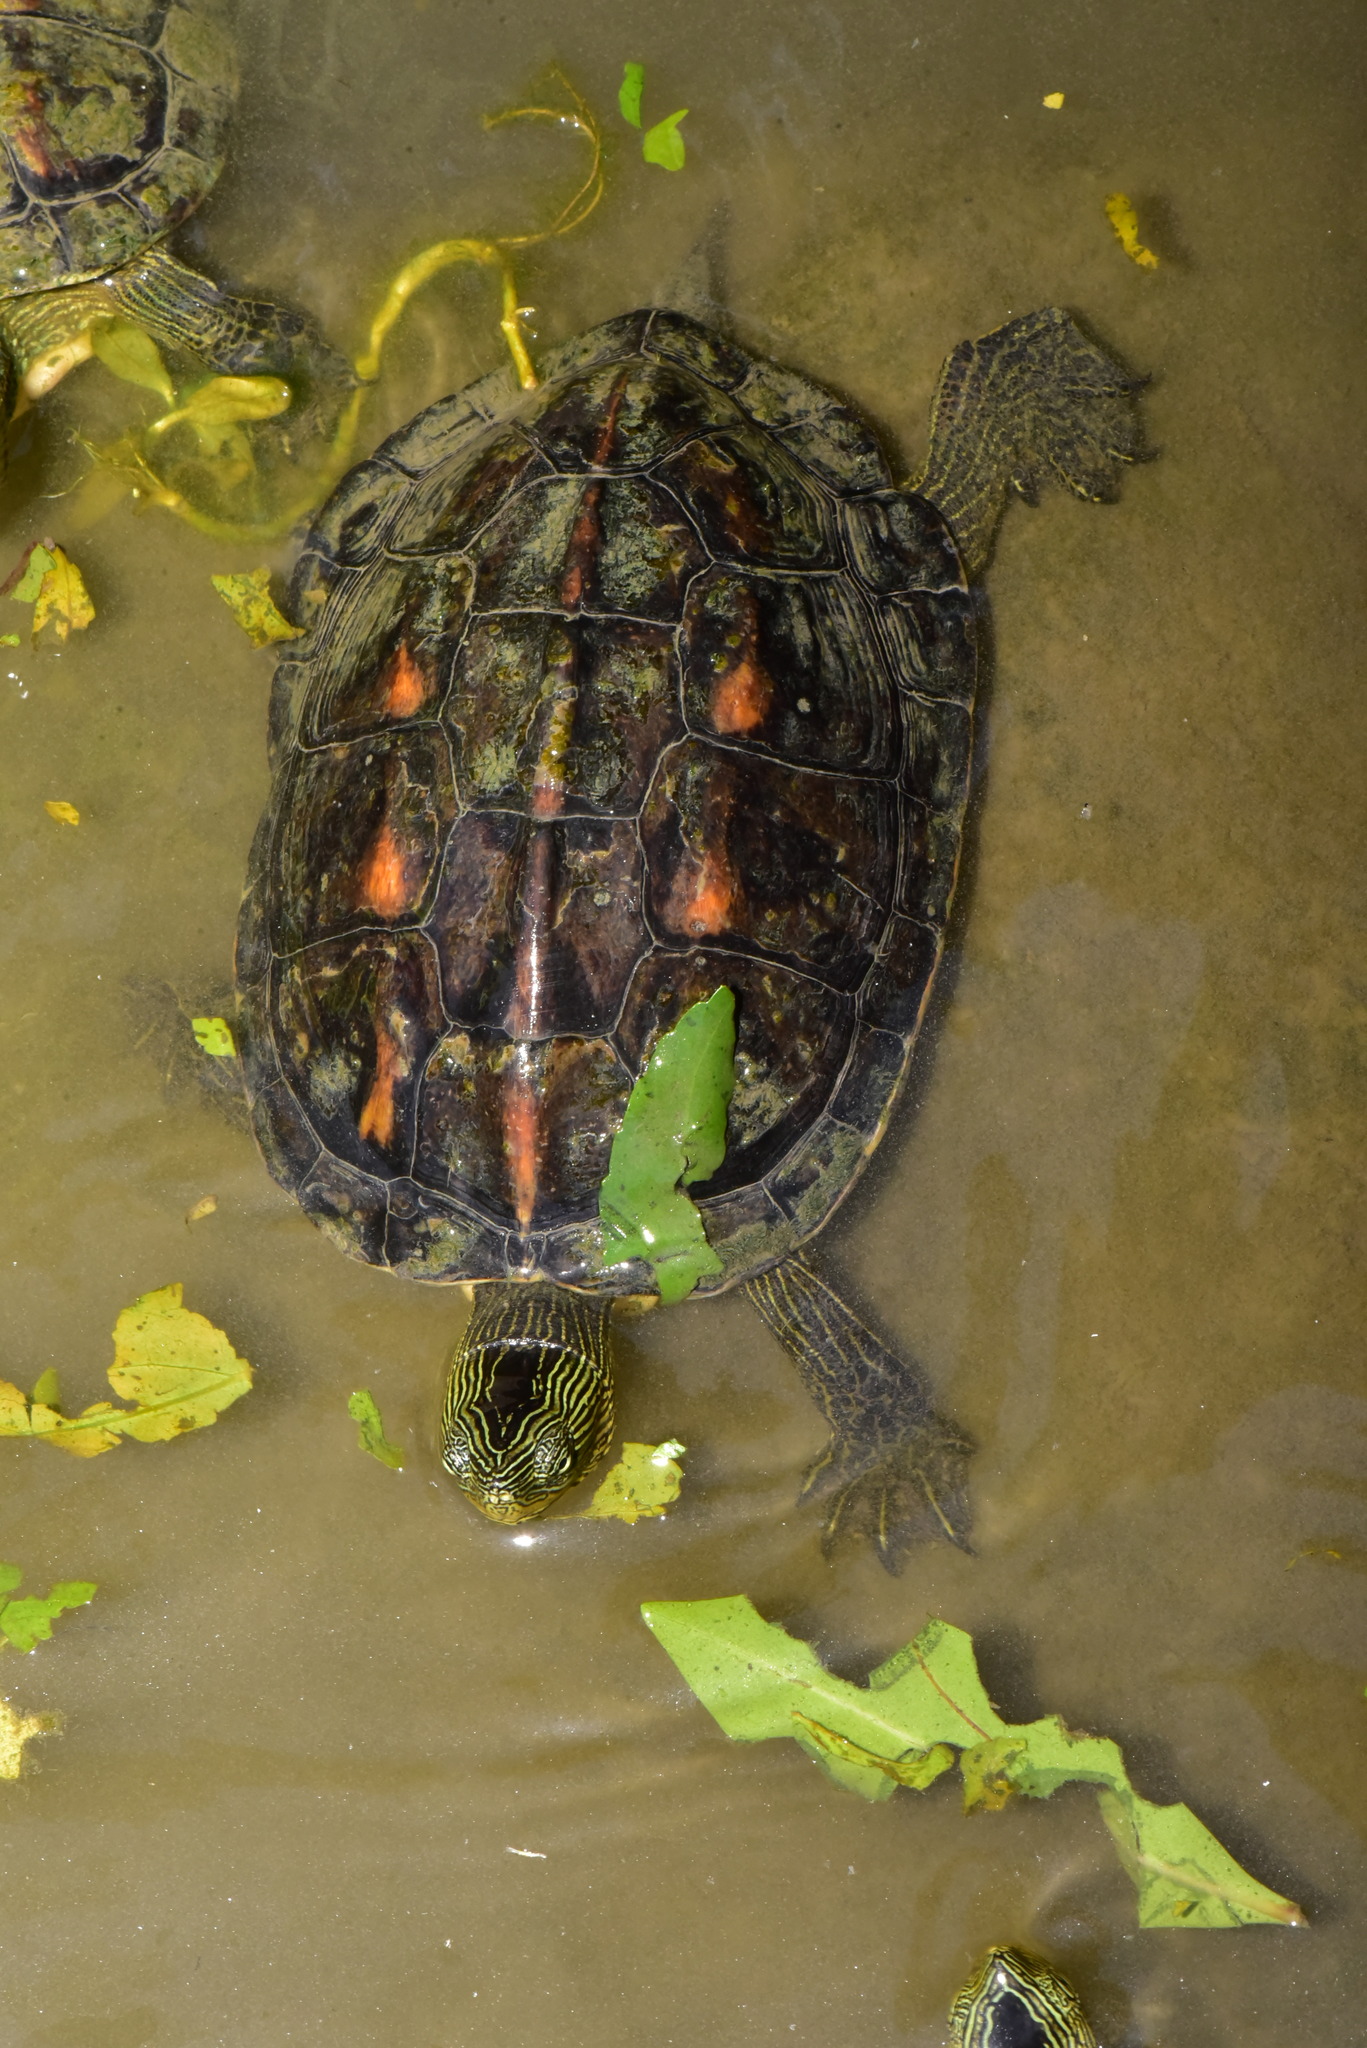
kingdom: Animalia
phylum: Chordata
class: Testudines
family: Geoemydidae
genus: Mauremys
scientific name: Mauremys sinensis
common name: Chinese stripe-necked turtle
